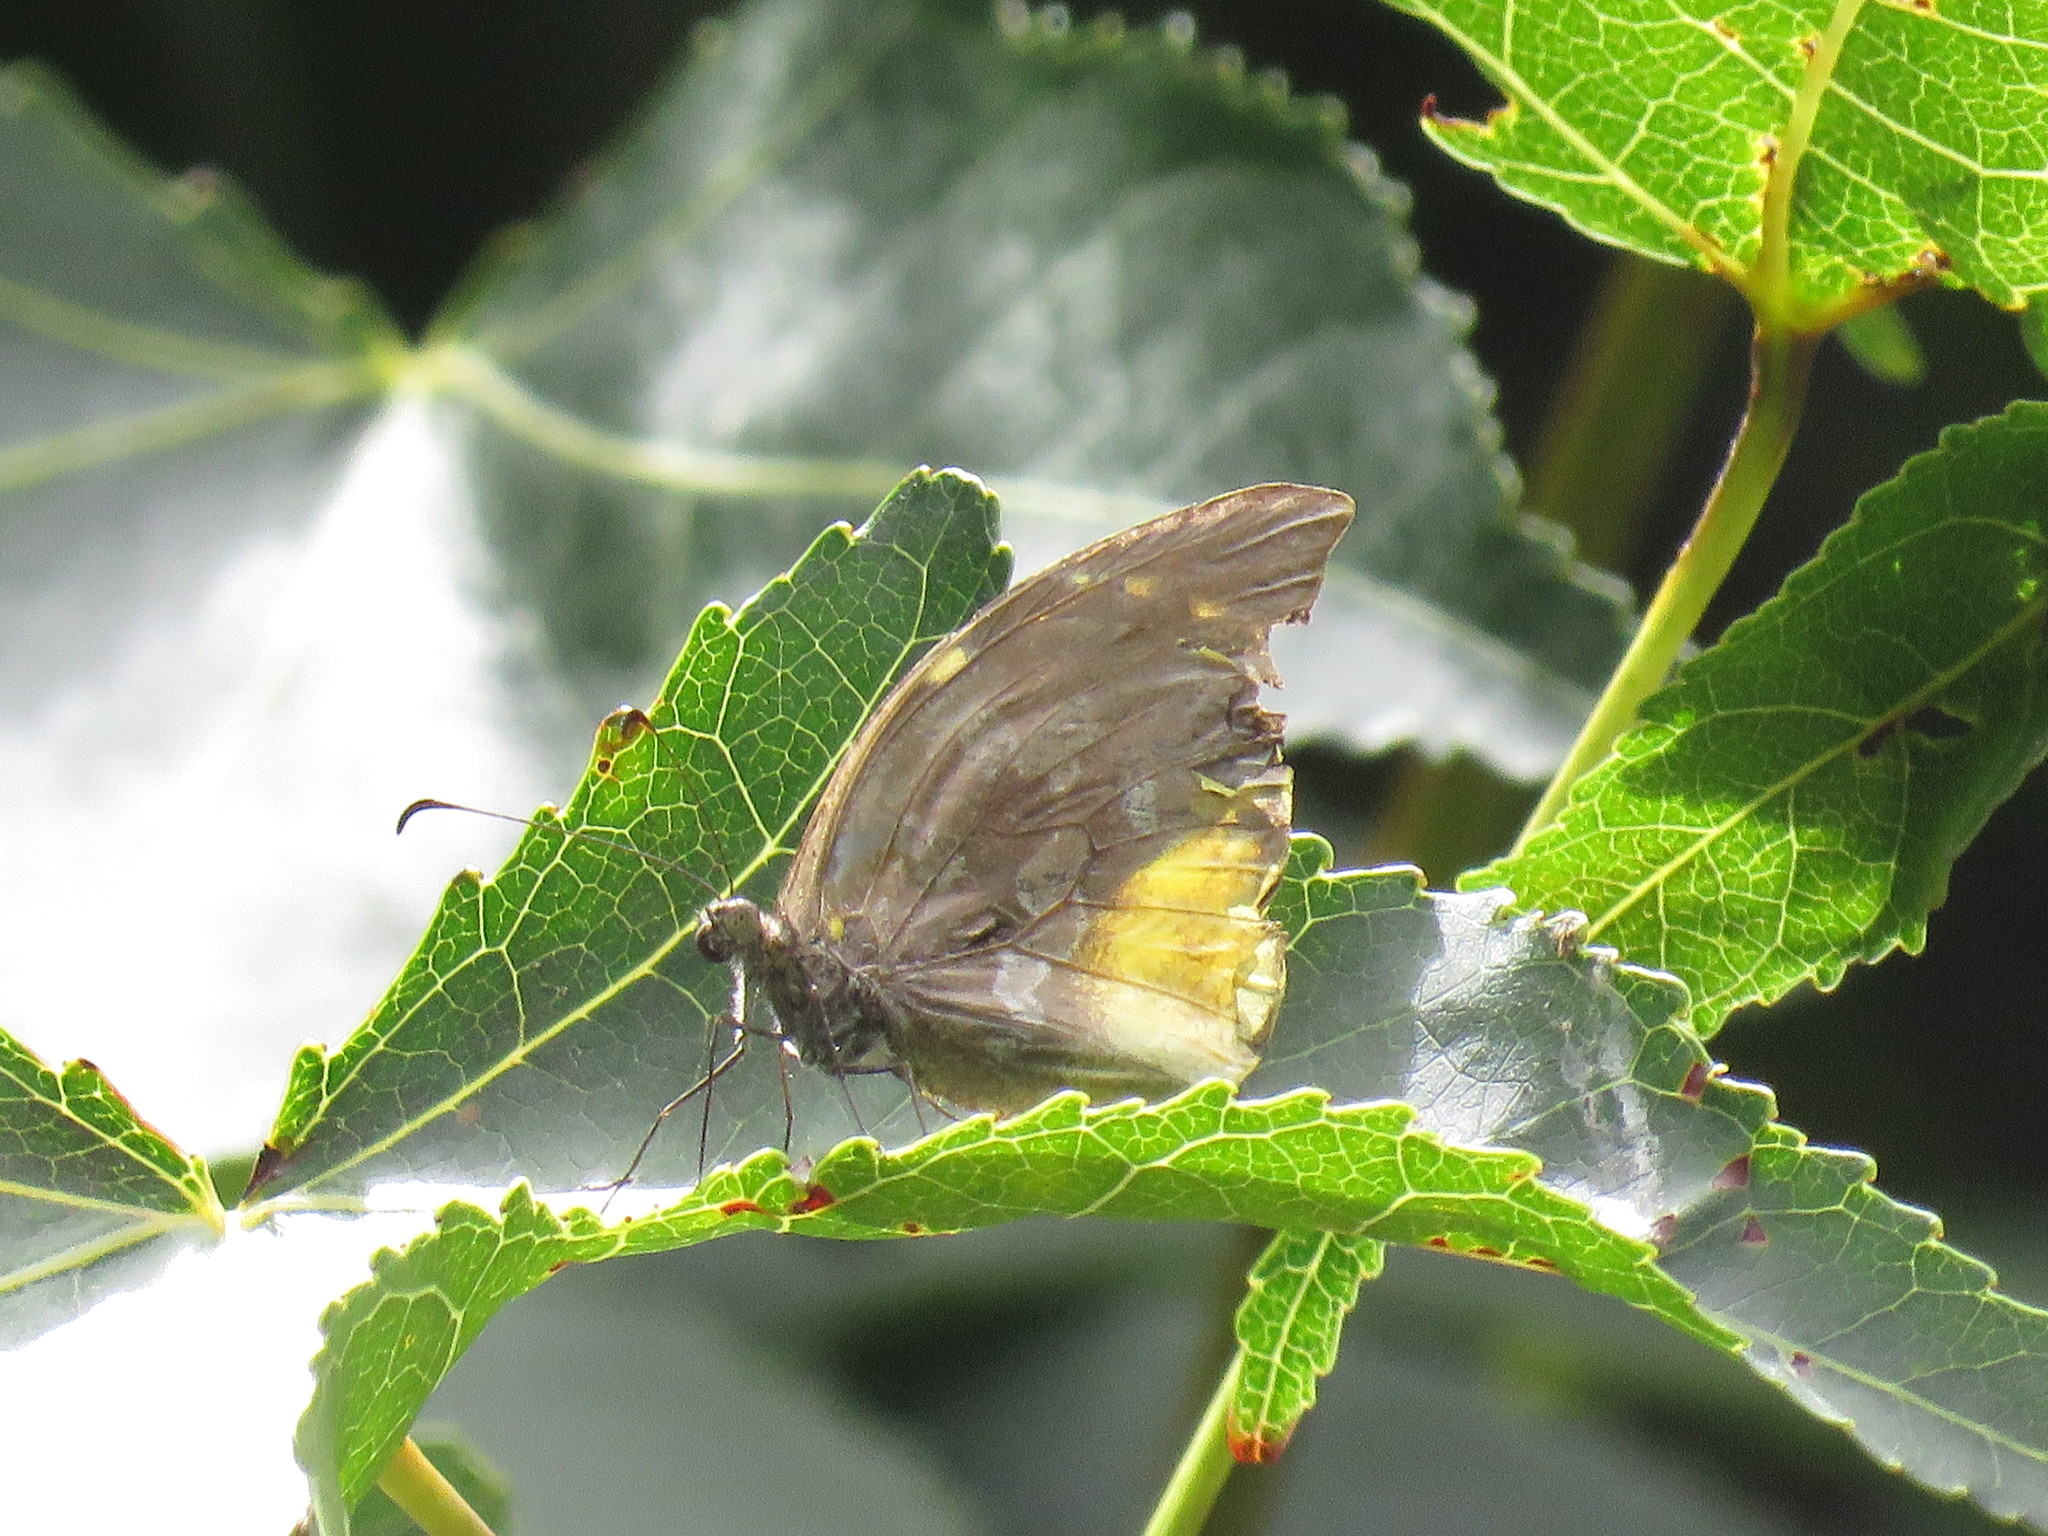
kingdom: Animalia
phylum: Arthropoda
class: Insecta
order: Lepidoptera
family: Pieridae
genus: Lieinix
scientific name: Lieinix nemesis
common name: Frosted mimic-white
